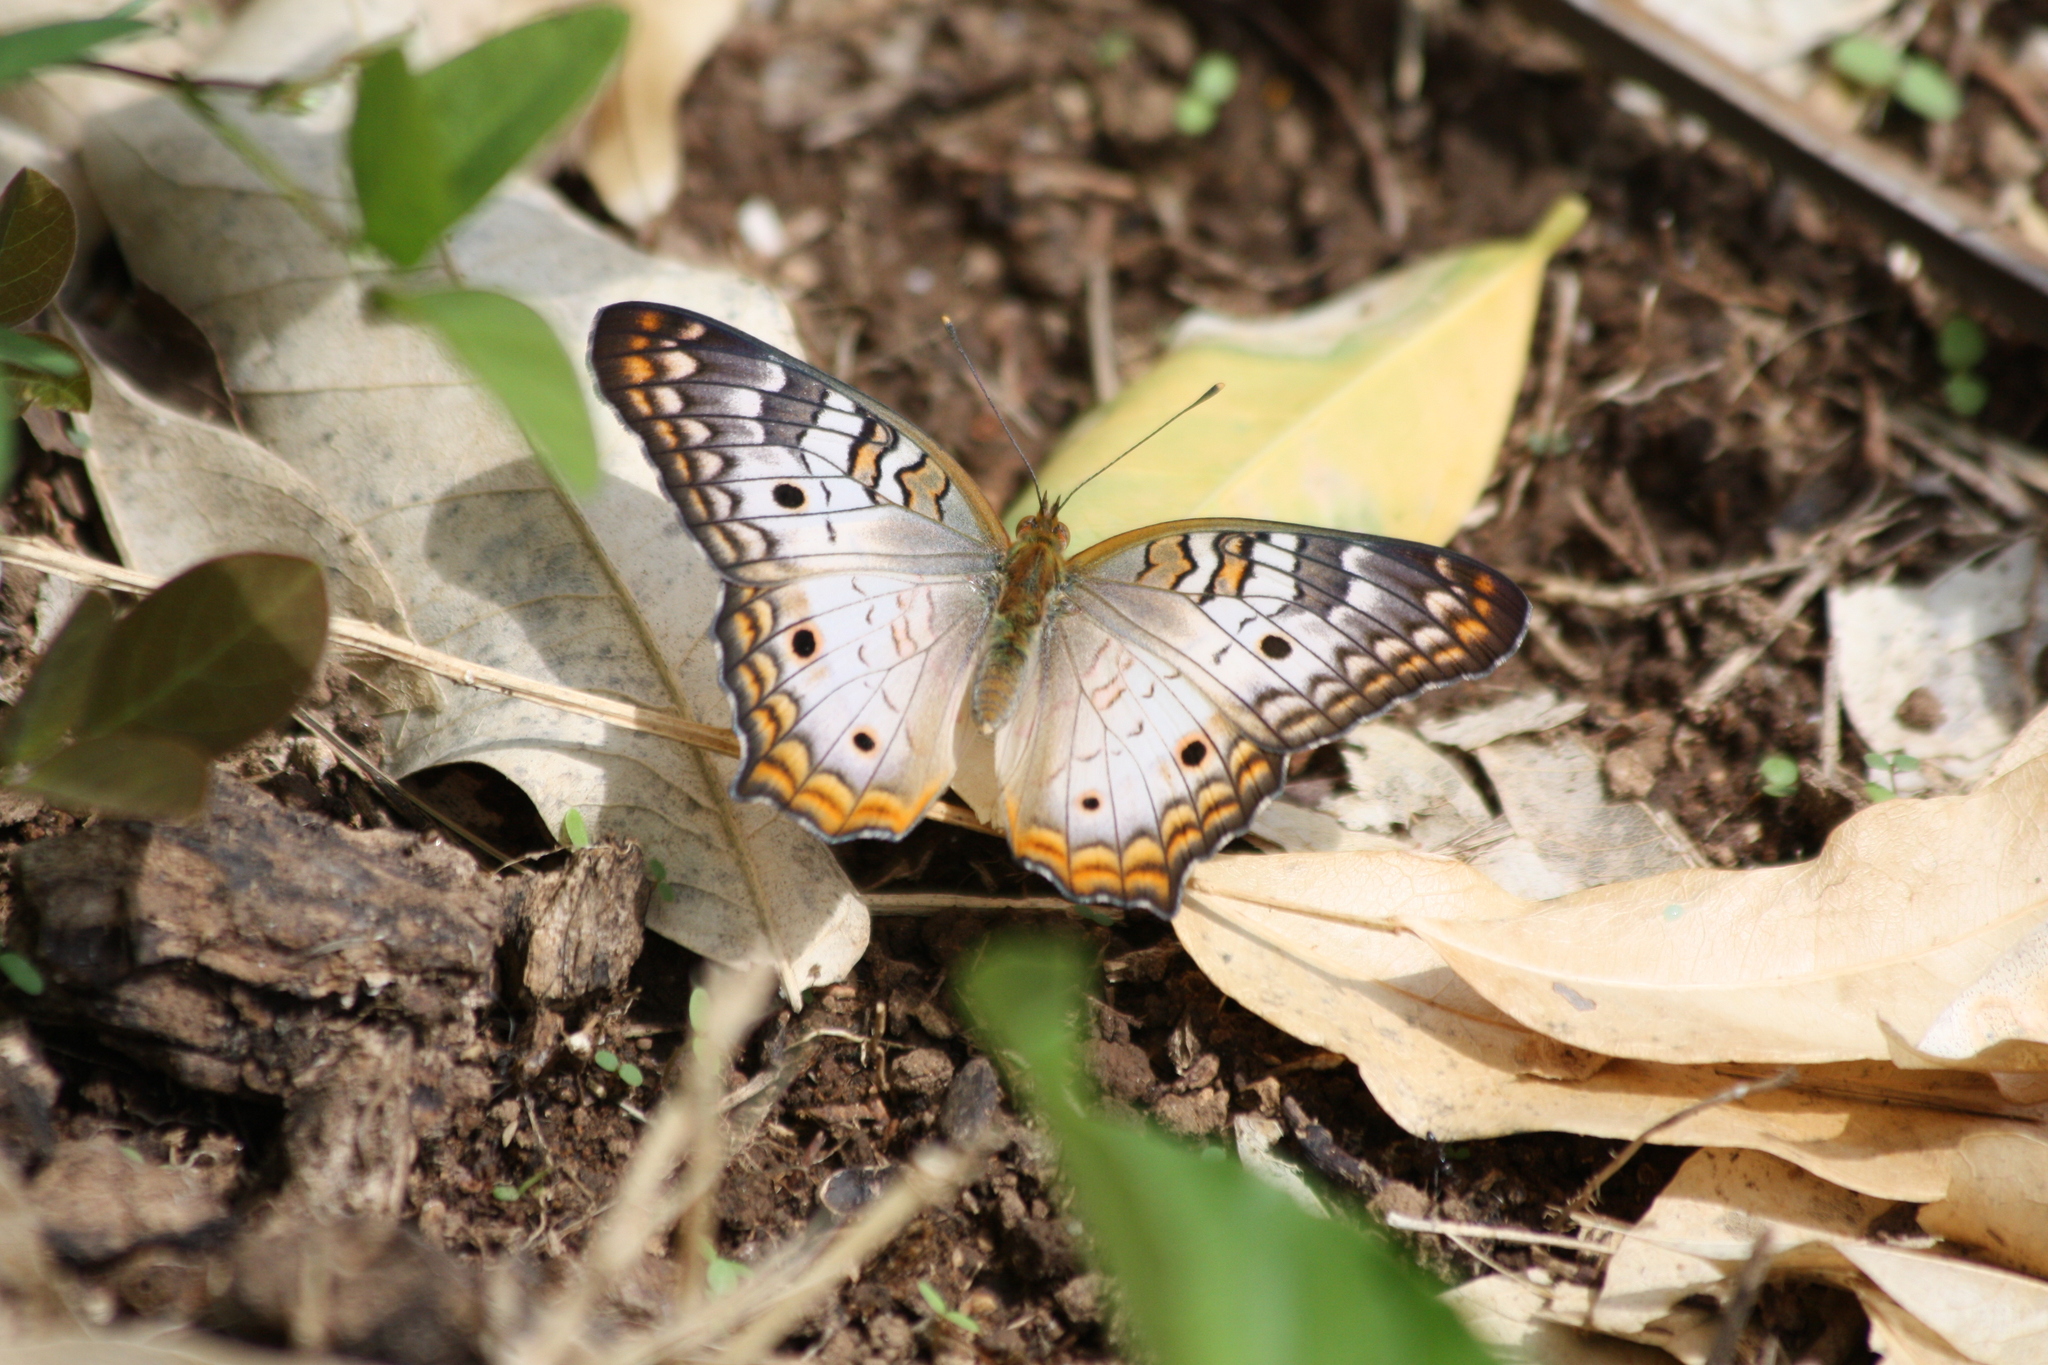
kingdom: Animalia
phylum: Arthropoda
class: Insecta
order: Lepidoptera
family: Nymphalidae
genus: Anartia
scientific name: Anartia jatrophae
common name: White peacock
